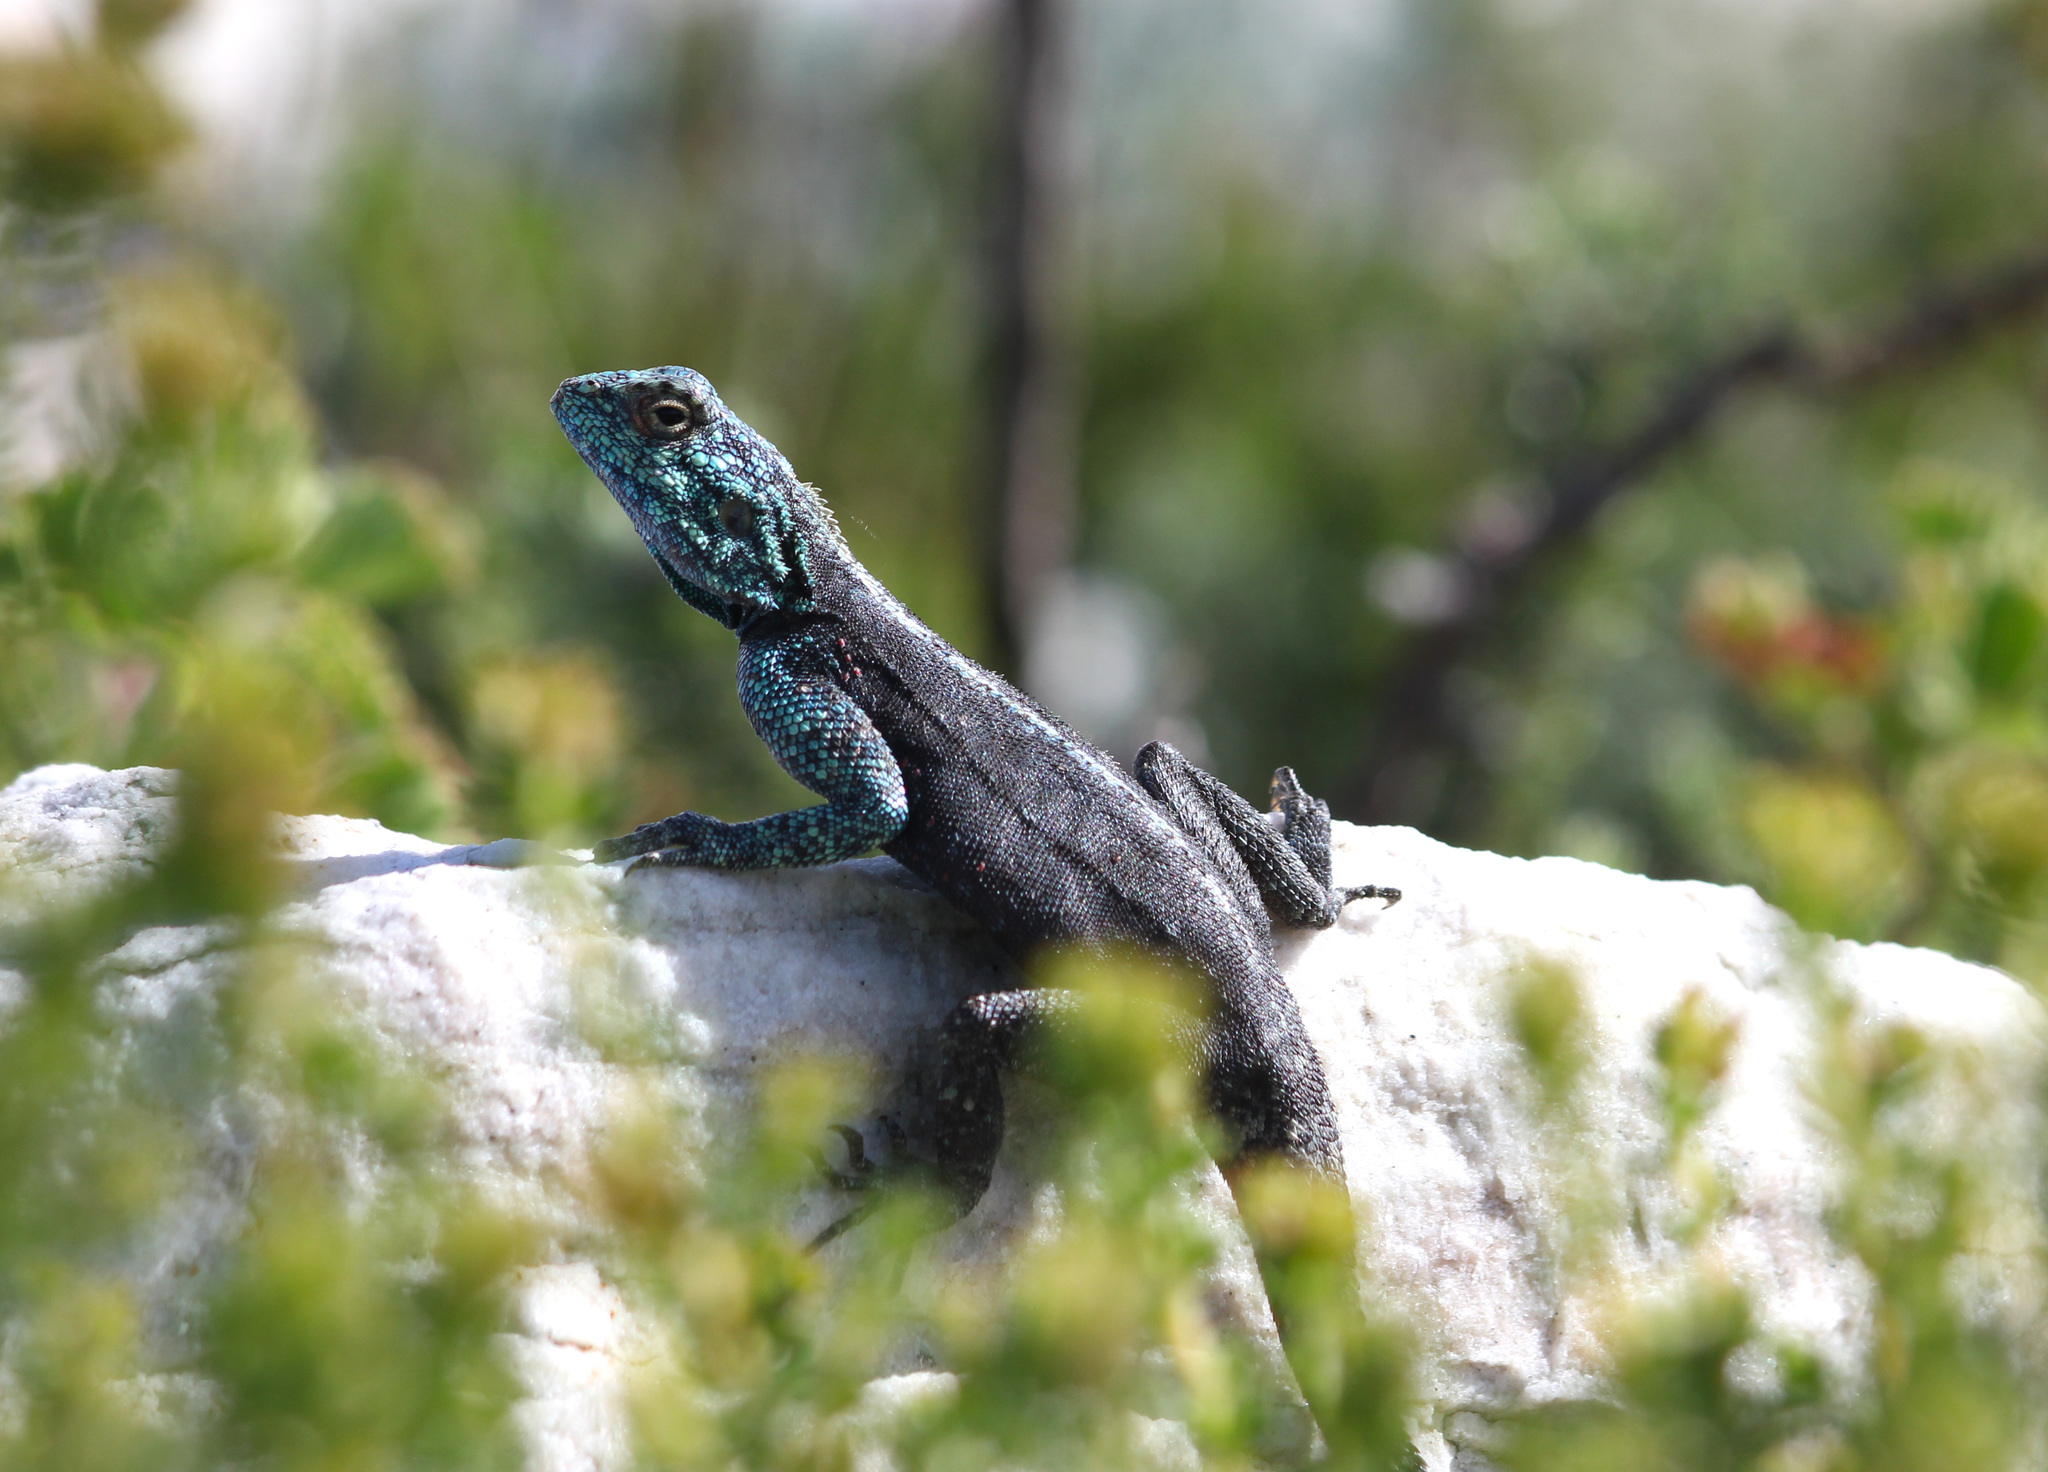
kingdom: Animalia
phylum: Chordata
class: Squamata
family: Agamidae
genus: Agama
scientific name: Agama atra
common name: Southern african rock agama
